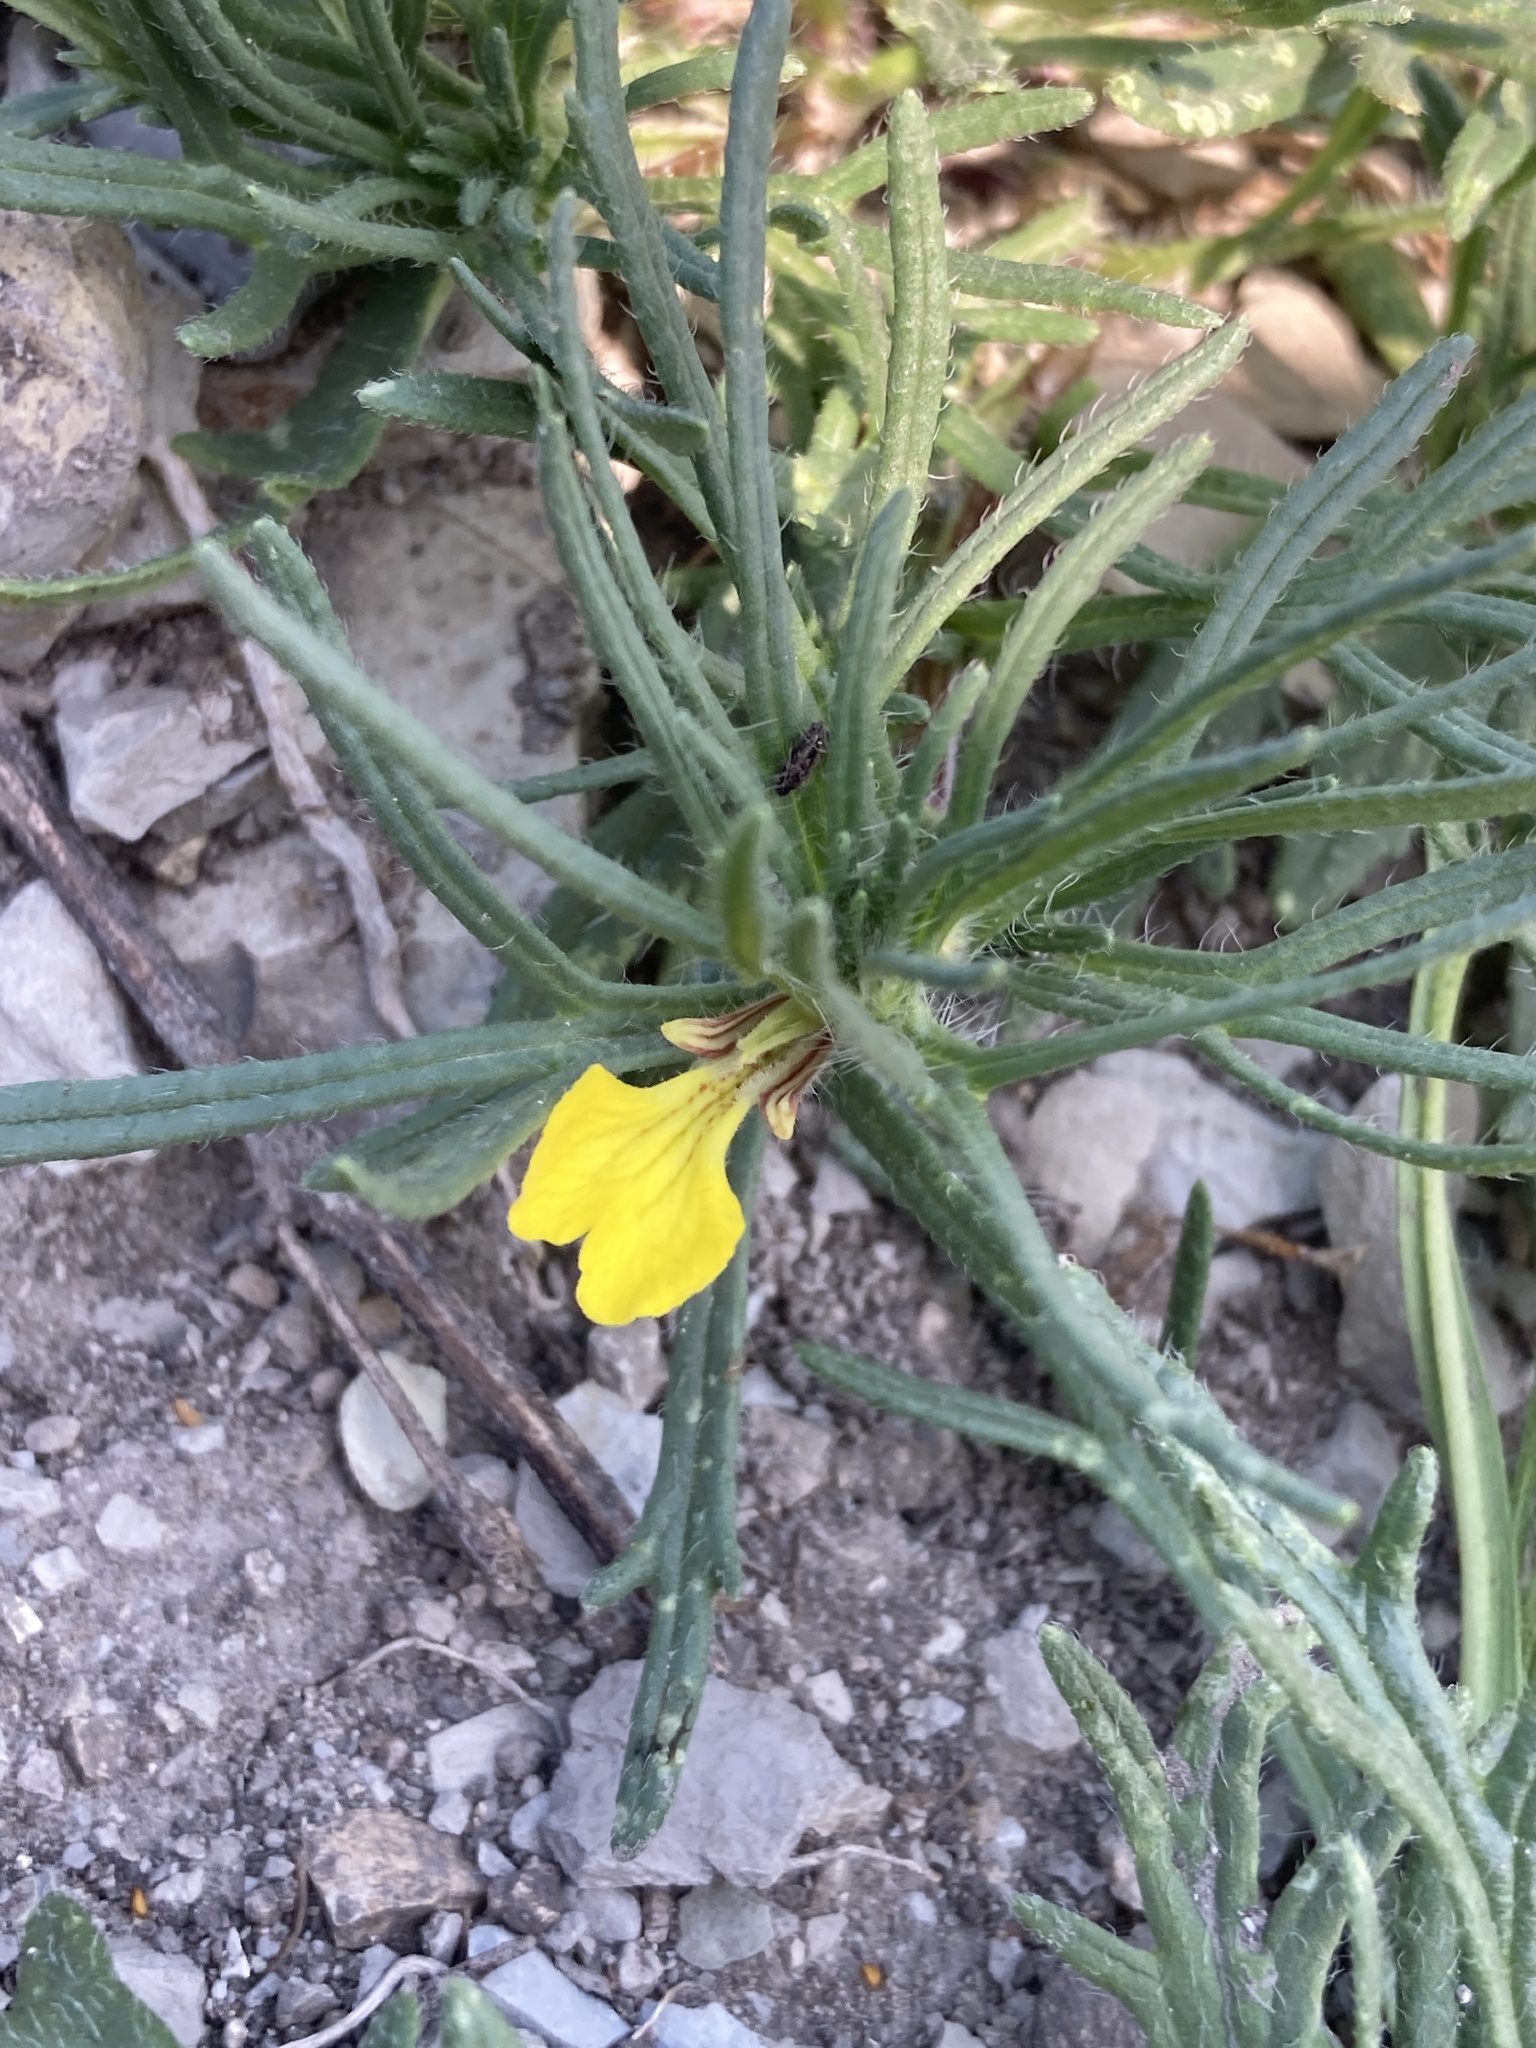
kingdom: Plantae
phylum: Tracheophyta
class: Magnoliopsida
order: Lamiales
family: Lamiaceae
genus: Ajuga
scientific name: Ajuga chamaepitys
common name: Ground-pine
